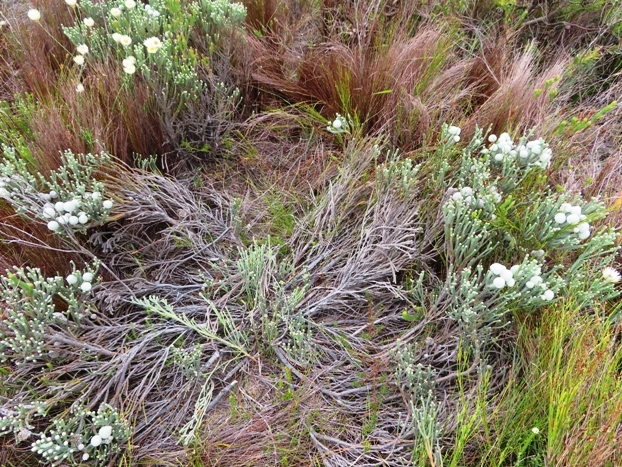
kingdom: Plantae
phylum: Tracheophyta
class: Magnoliopsida
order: Bruniales
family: Bruniaceae
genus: Brunia
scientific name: Brunia laevis
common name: Silver brunia
